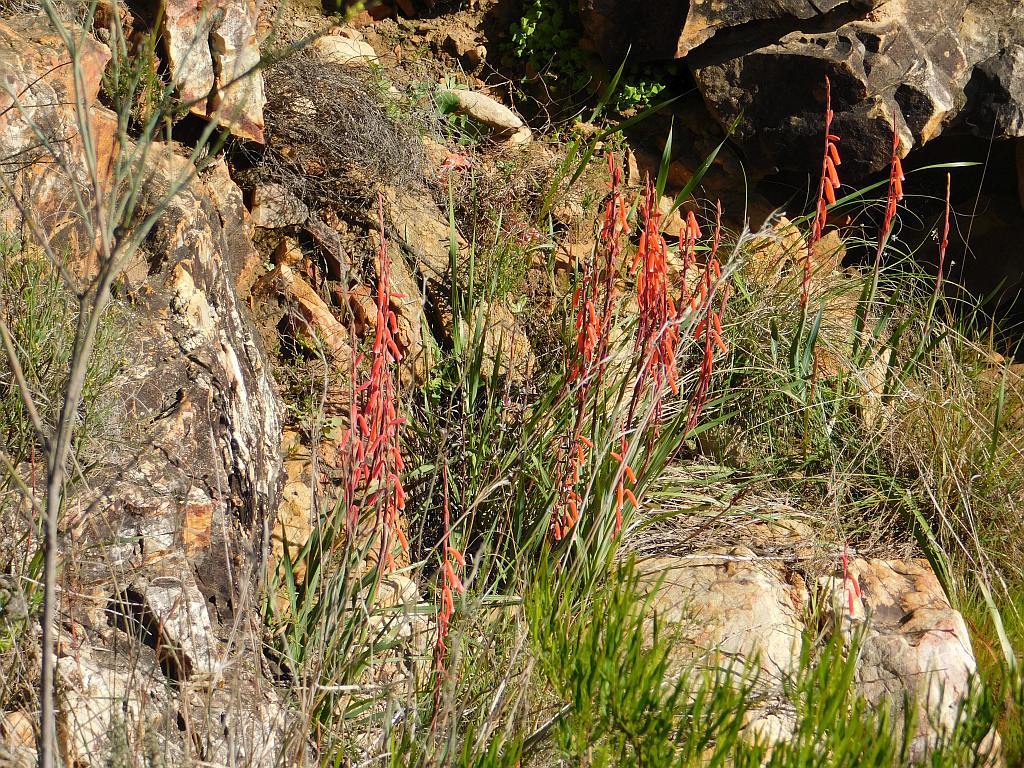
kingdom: Plantae
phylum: Tracheophyta
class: Liliopsida
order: Asparagales
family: Iridaceae
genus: Watsonia
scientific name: Watsonia aletroides
